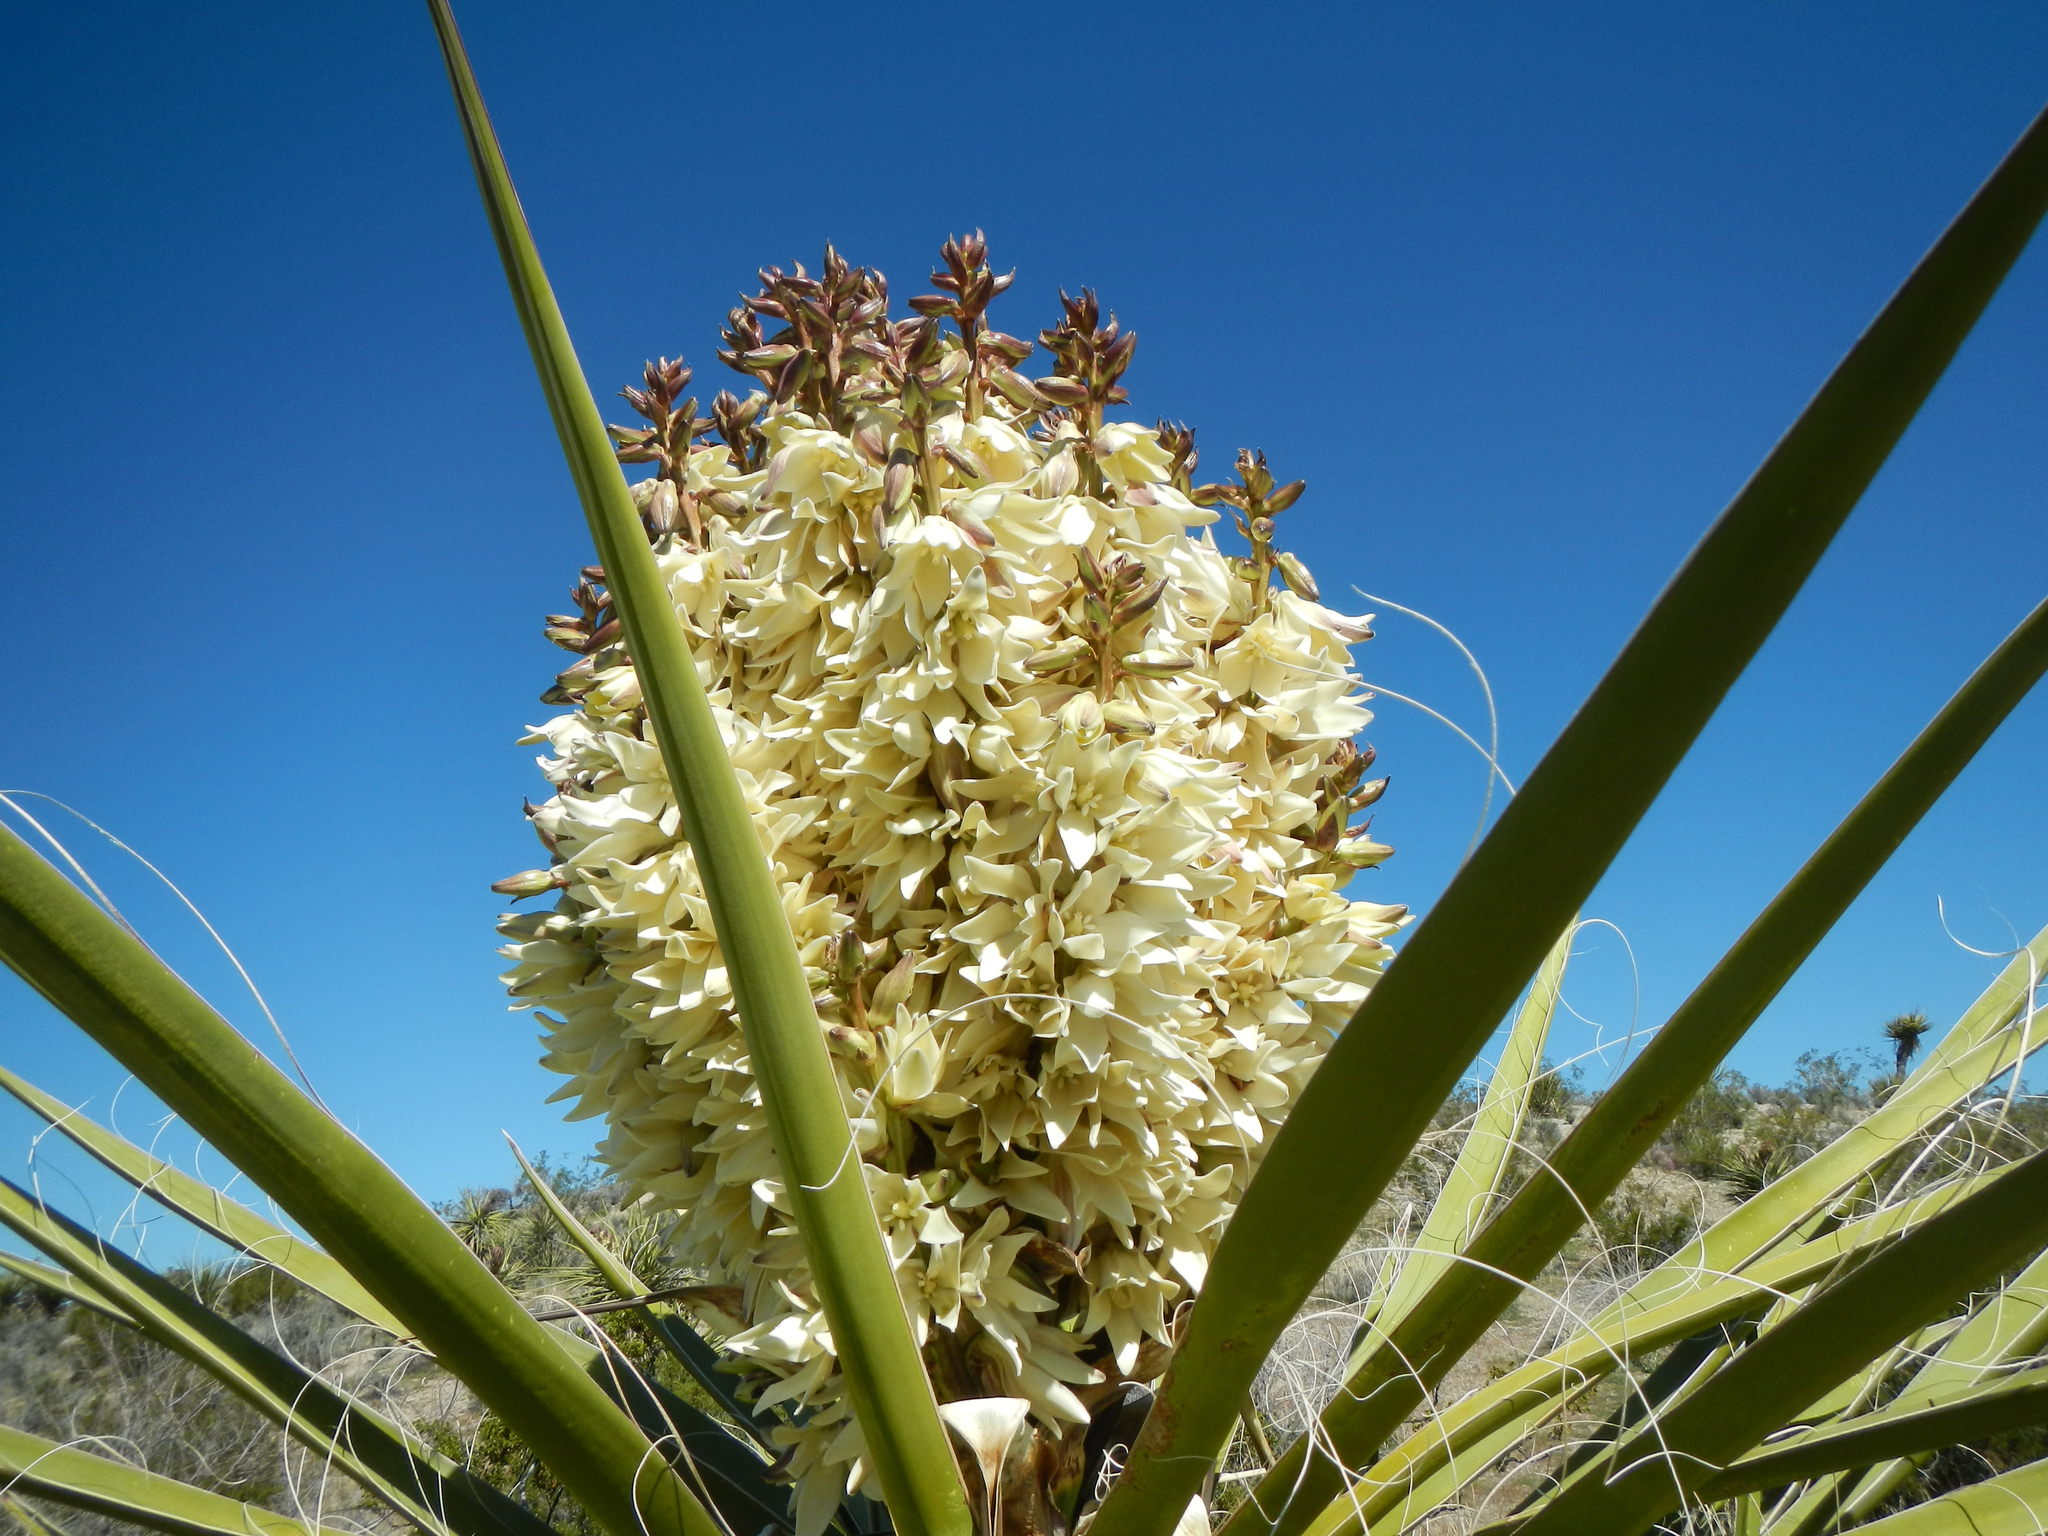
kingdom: Plantae
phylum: Tracheophyta
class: Liliopsida
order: Asparagales
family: Asparagaceae
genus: Yucca
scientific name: Yucca schidigera
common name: Mojave yucca
